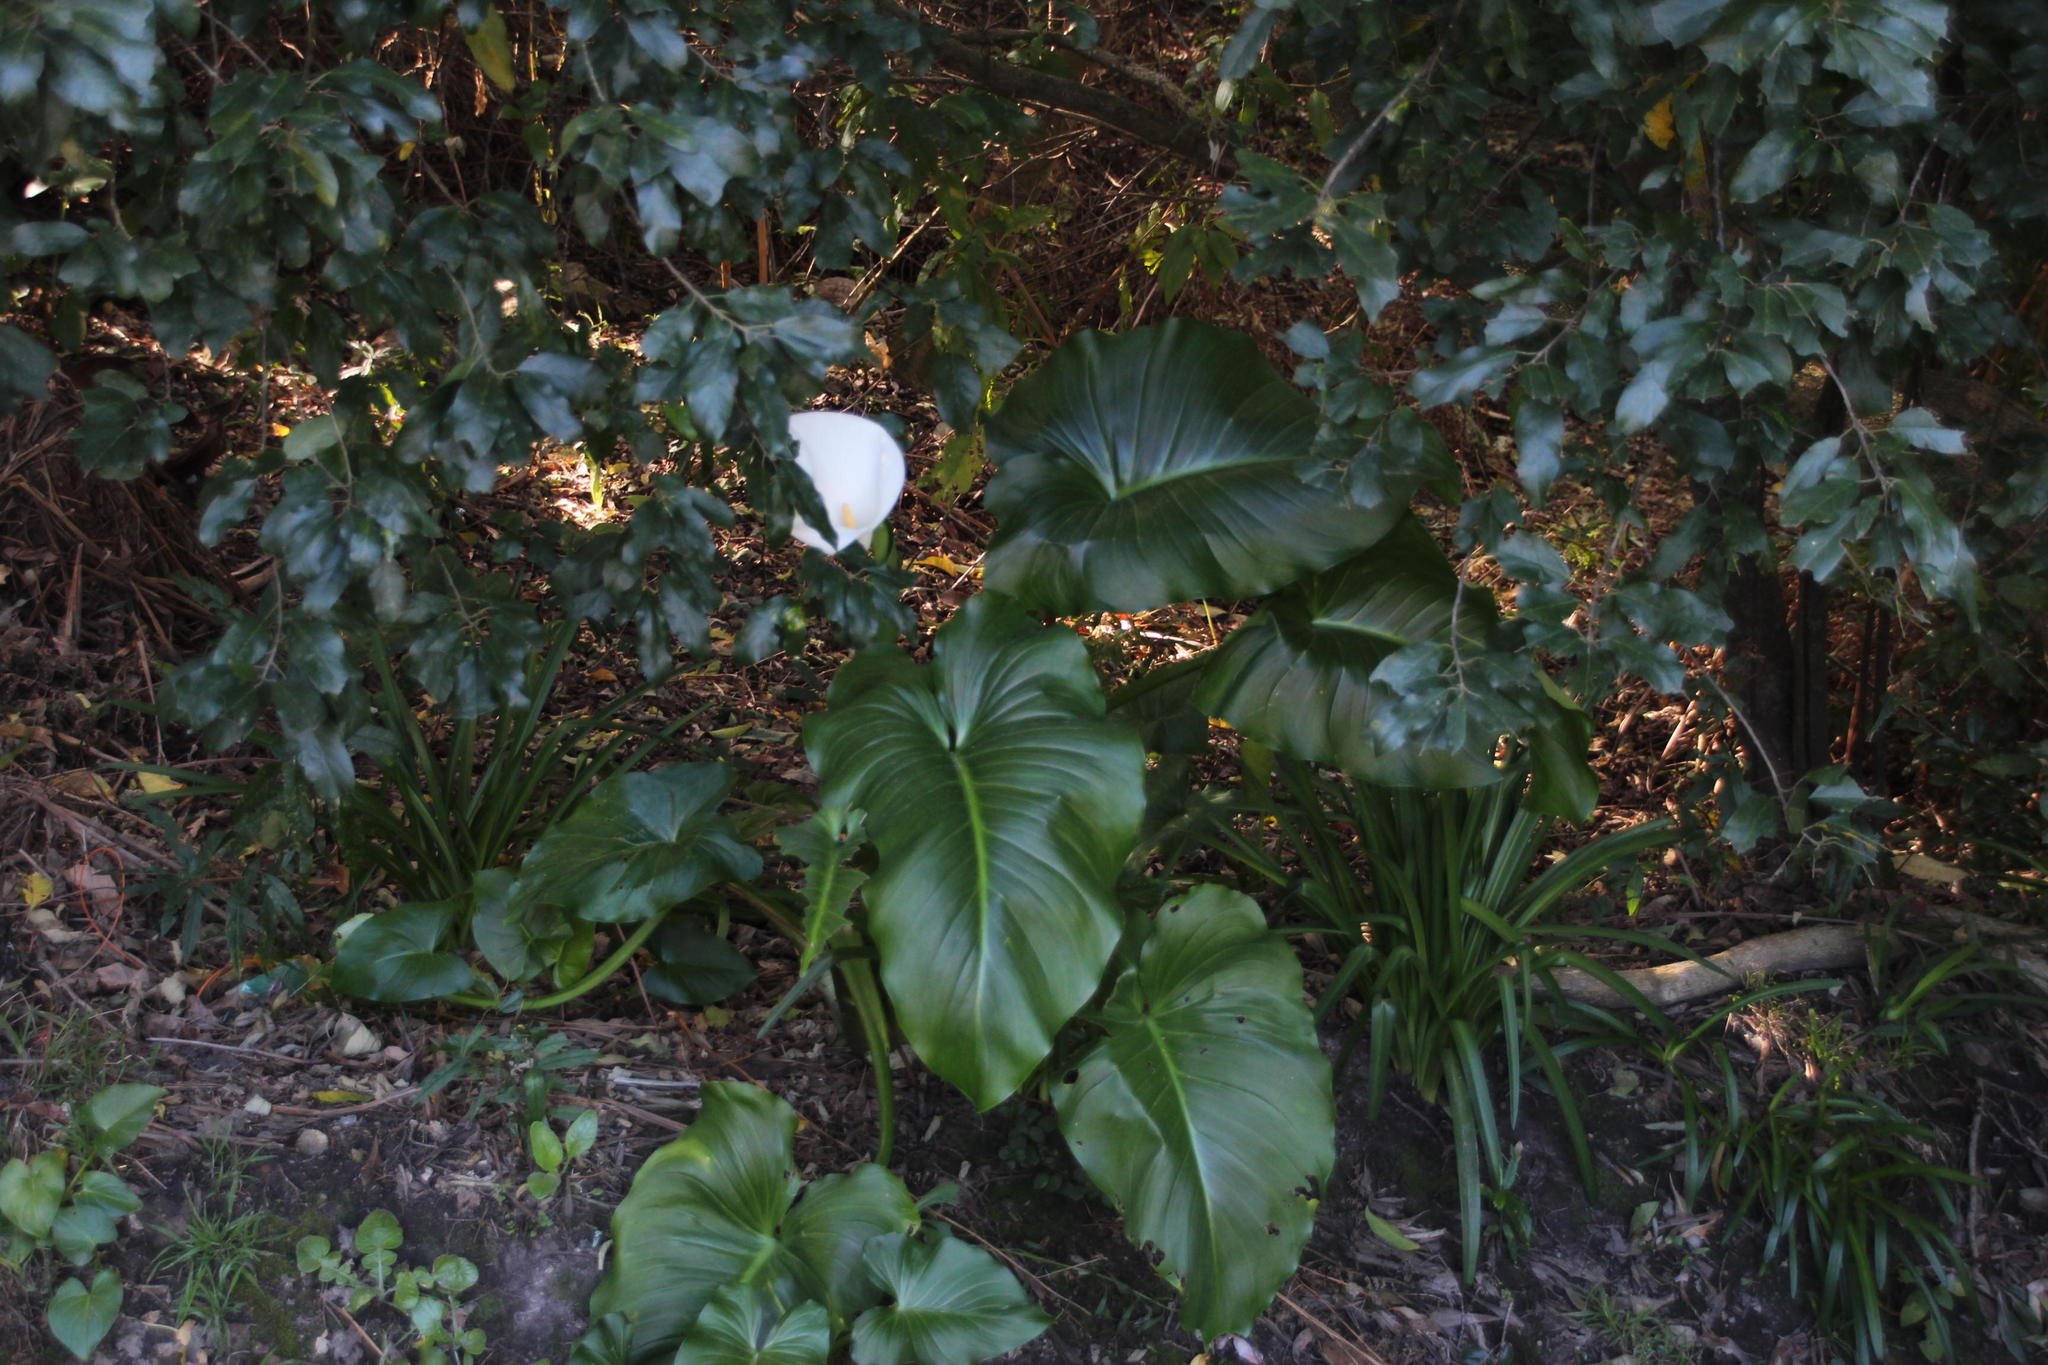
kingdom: Plantae
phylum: Tracheophyta
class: Liliopsida
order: Alismatales
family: Araceae
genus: Zantedeschia
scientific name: Zantedeschia aethiopica
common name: Altar-lily
